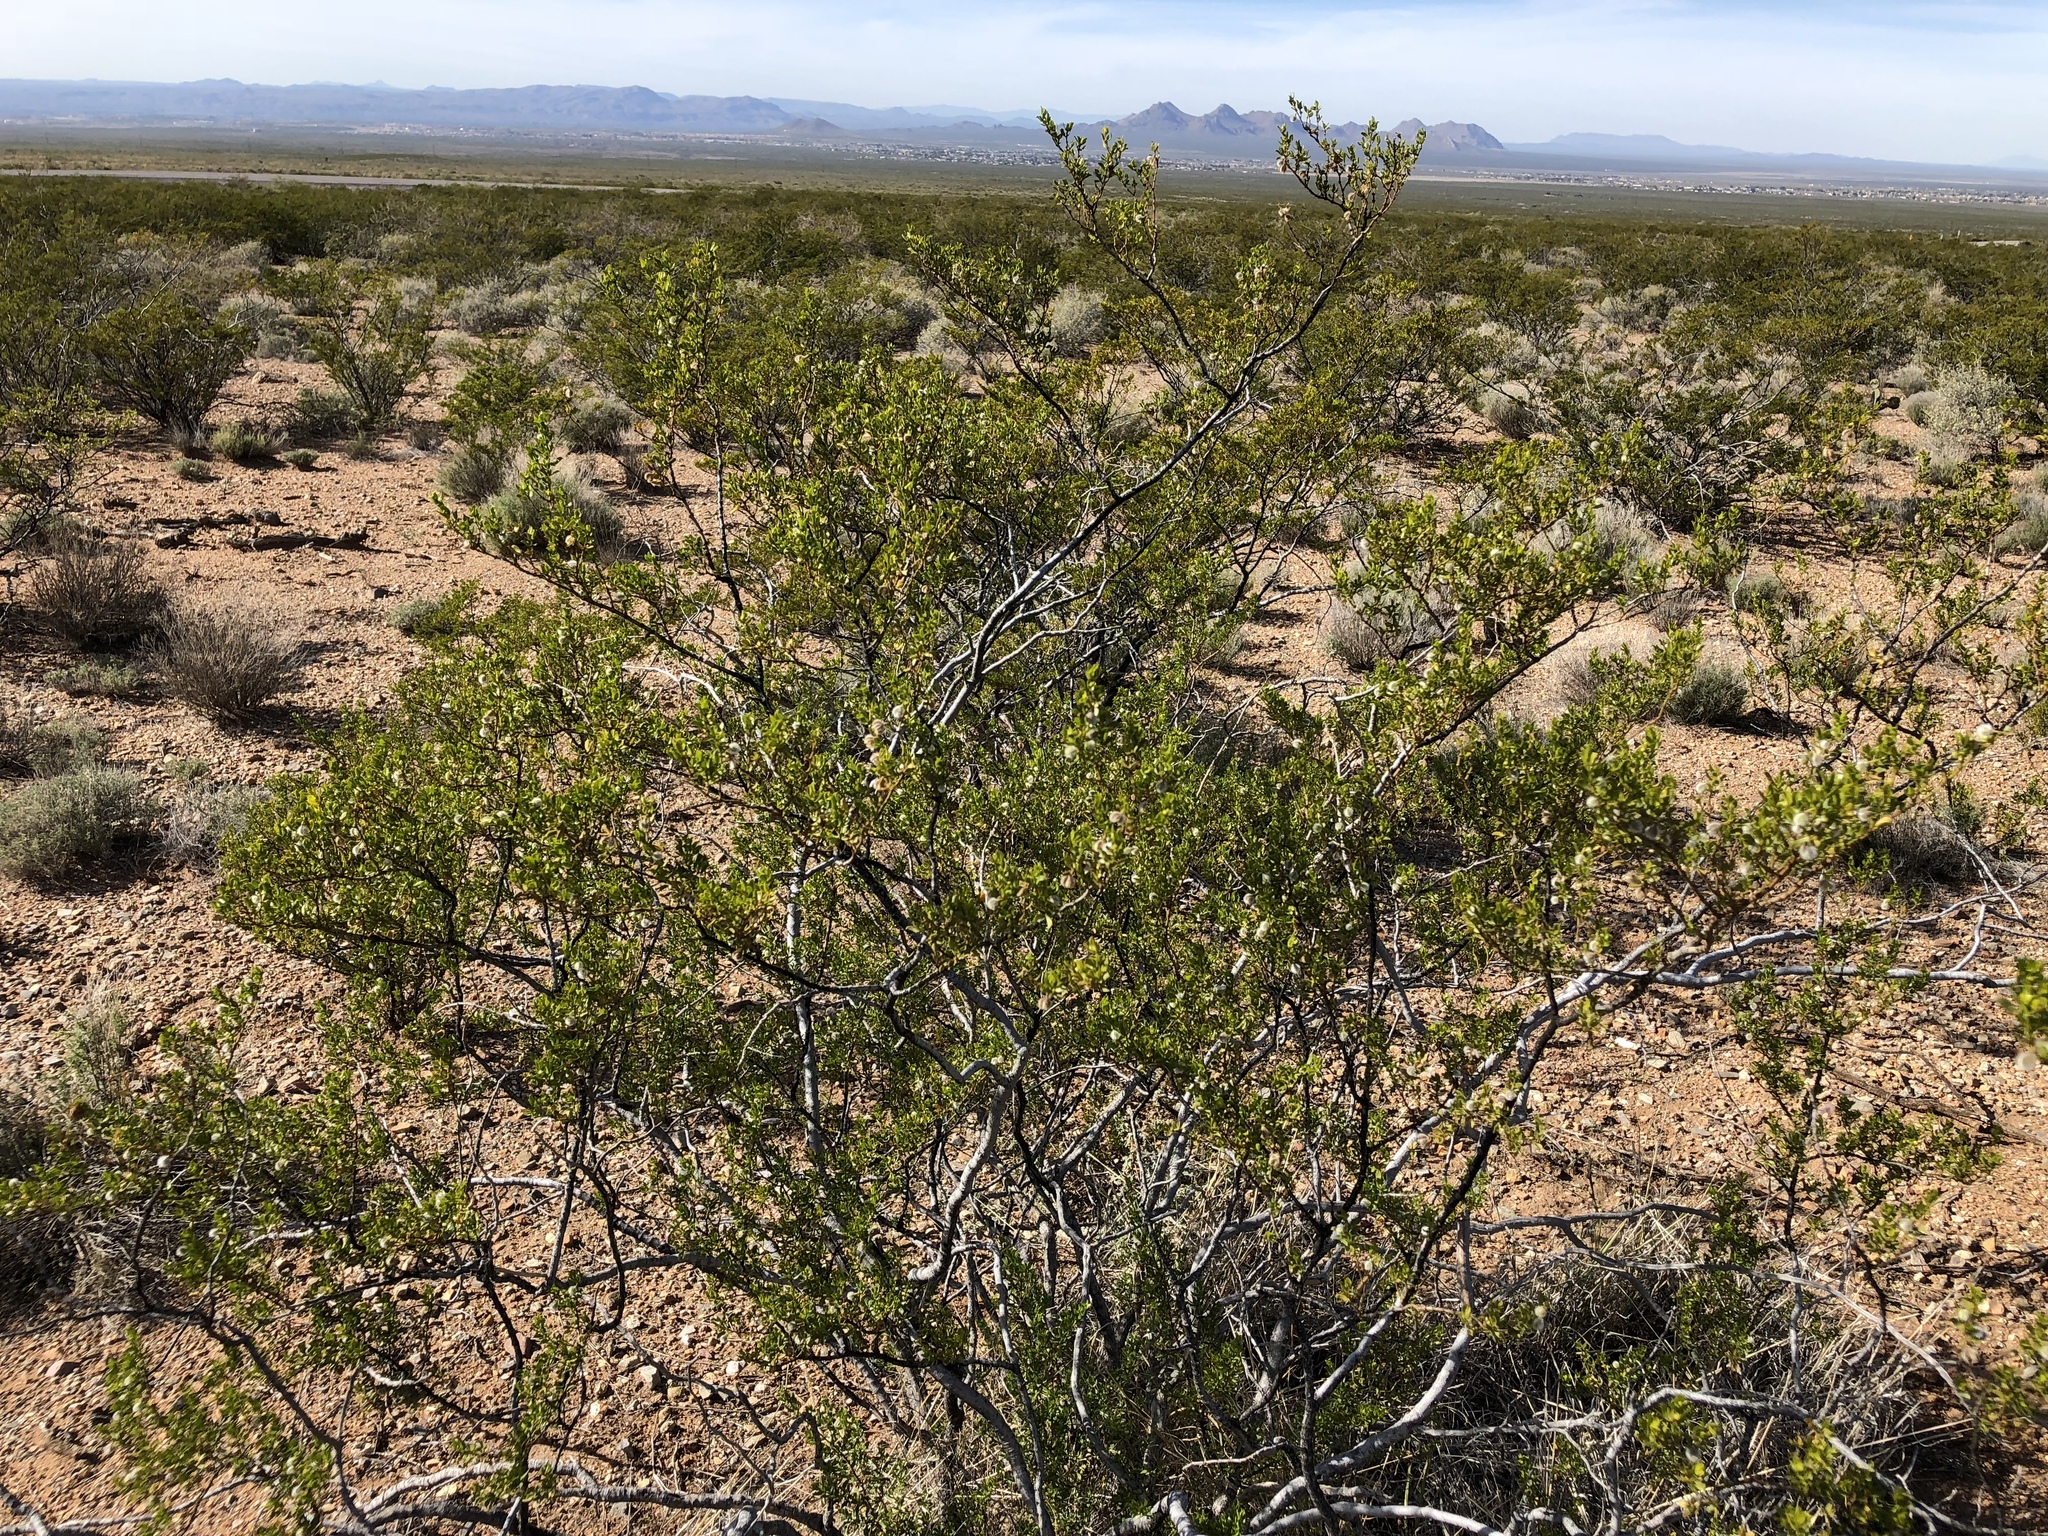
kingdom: Plantae
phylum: Tracheophyta
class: Magnoliopsida
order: Zygophyllales
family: Zygophyllaceae
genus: Larrea
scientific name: Larrea tridentata
